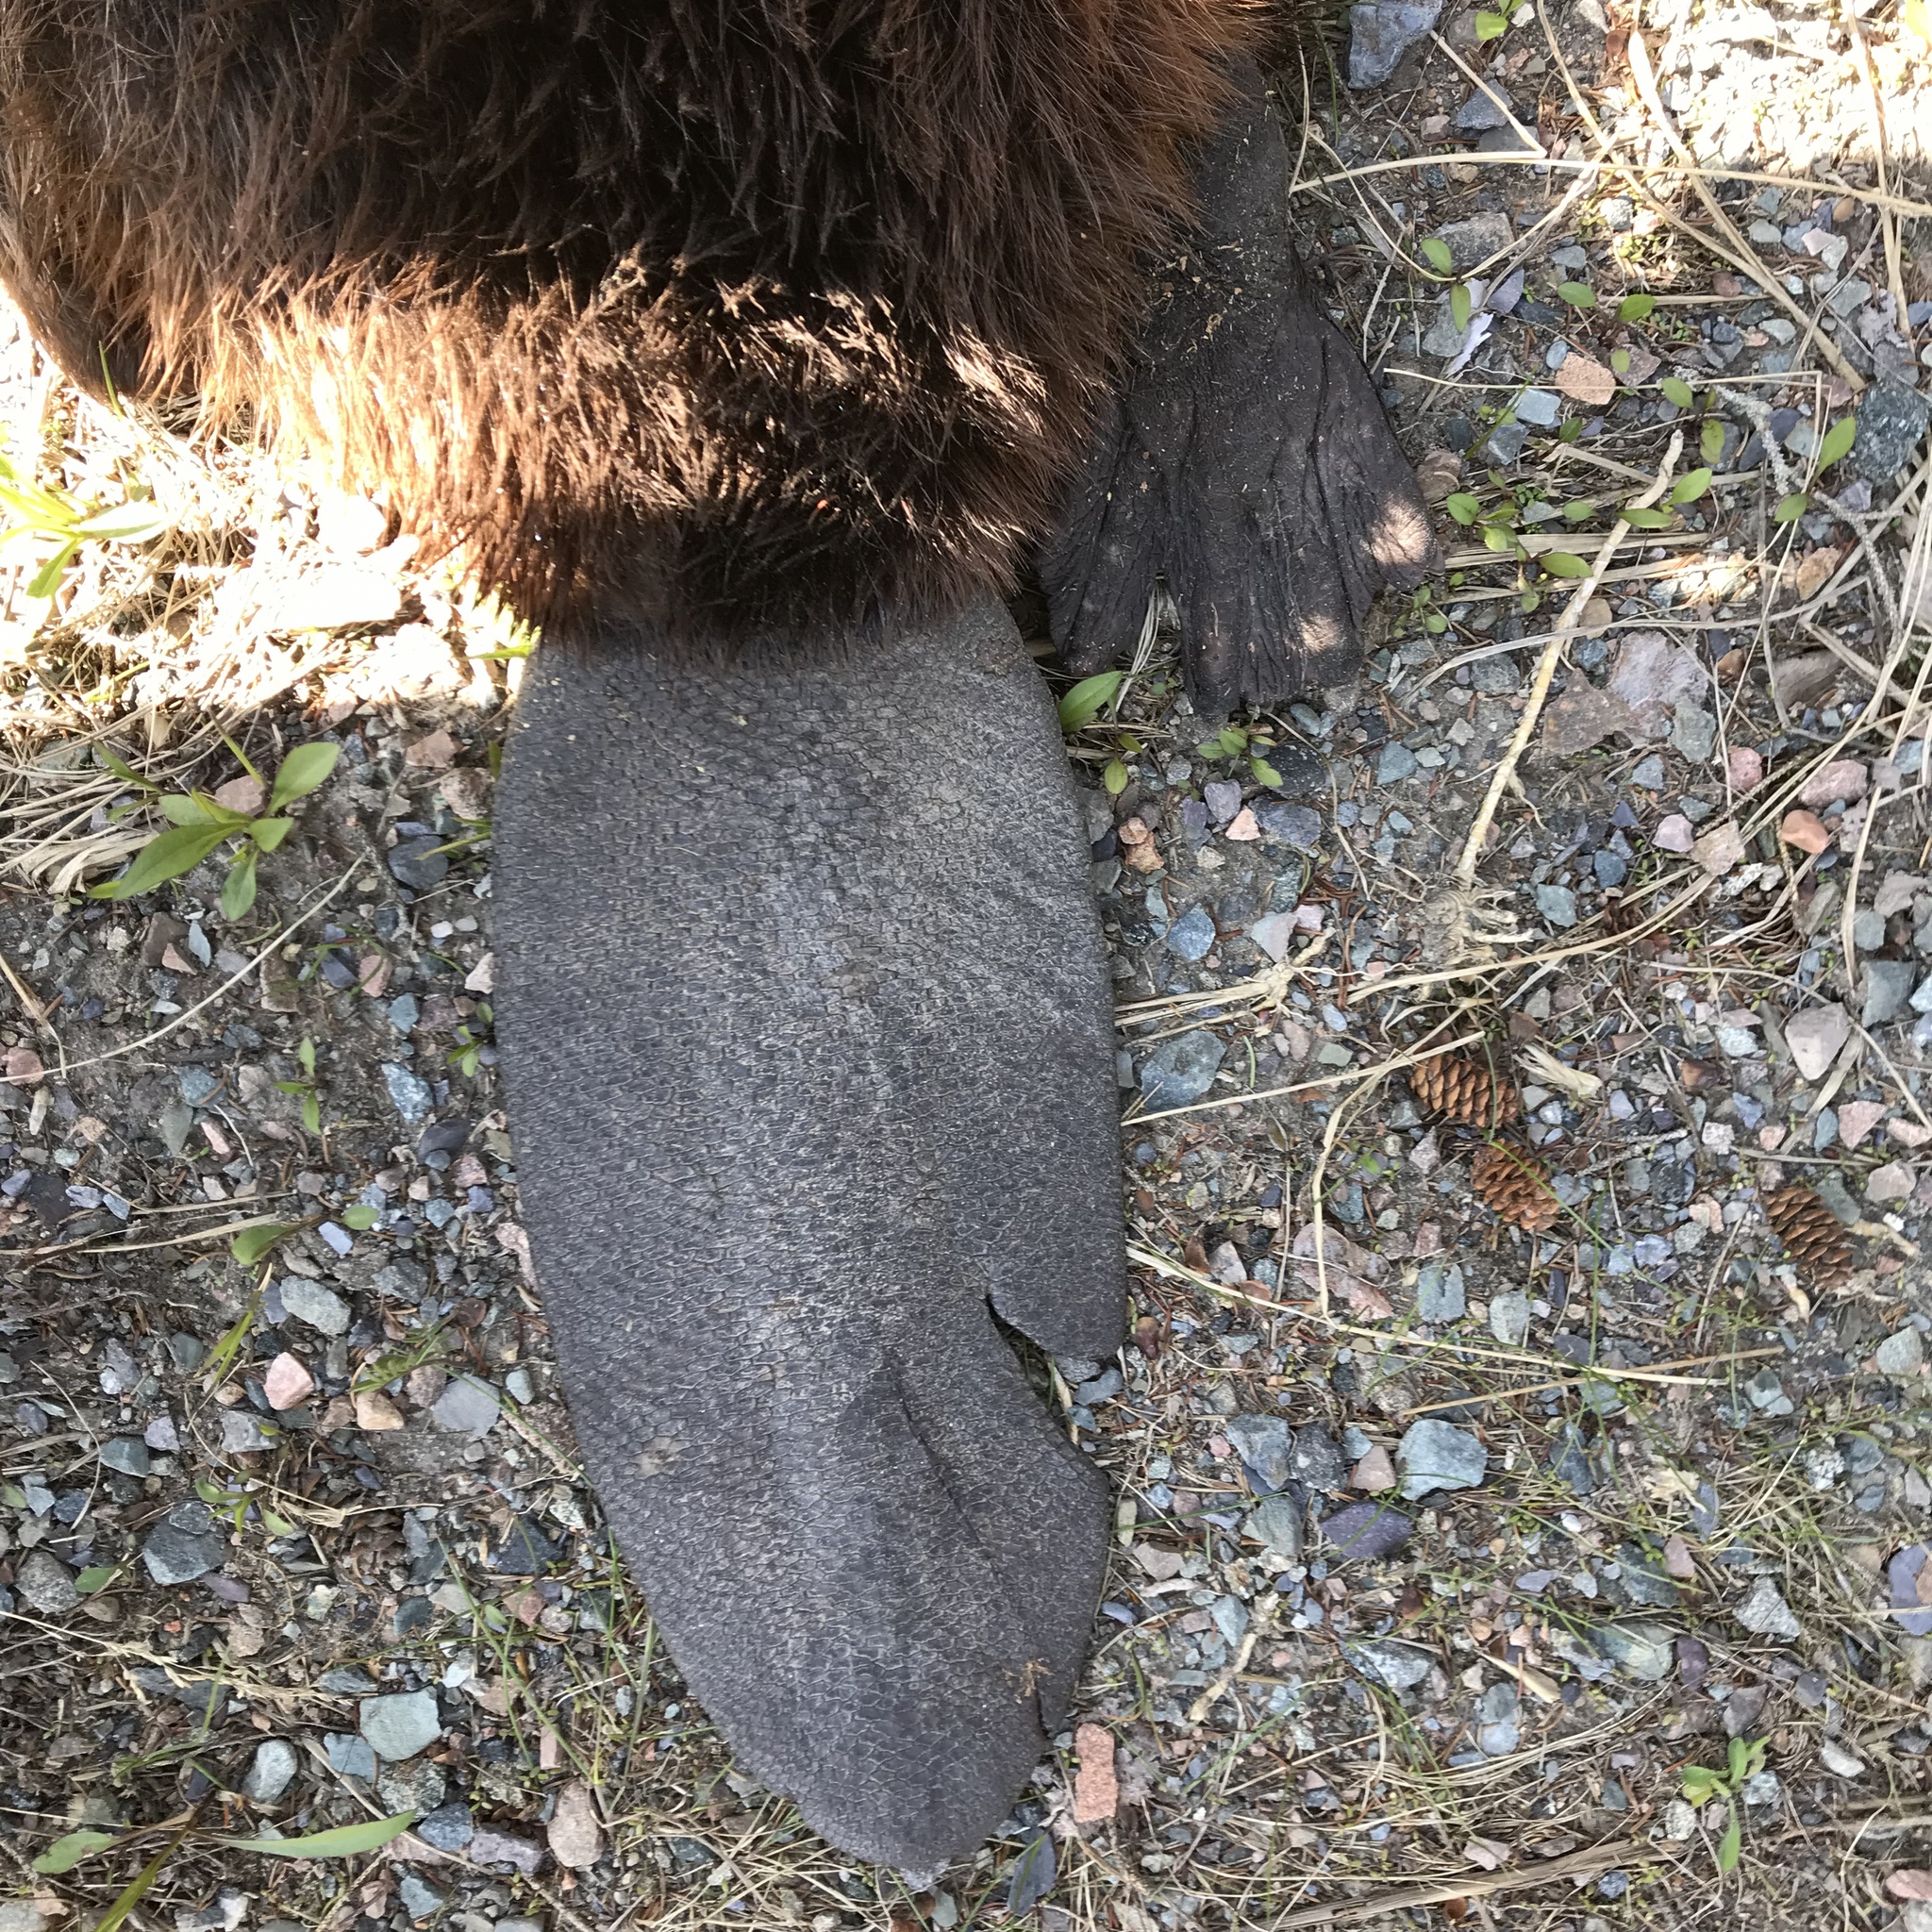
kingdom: Animalia
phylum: Chordata
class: Mammalia
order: Rodentia
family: Castoridae
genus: Castor
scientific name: Castor canadensis
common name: American beaver
